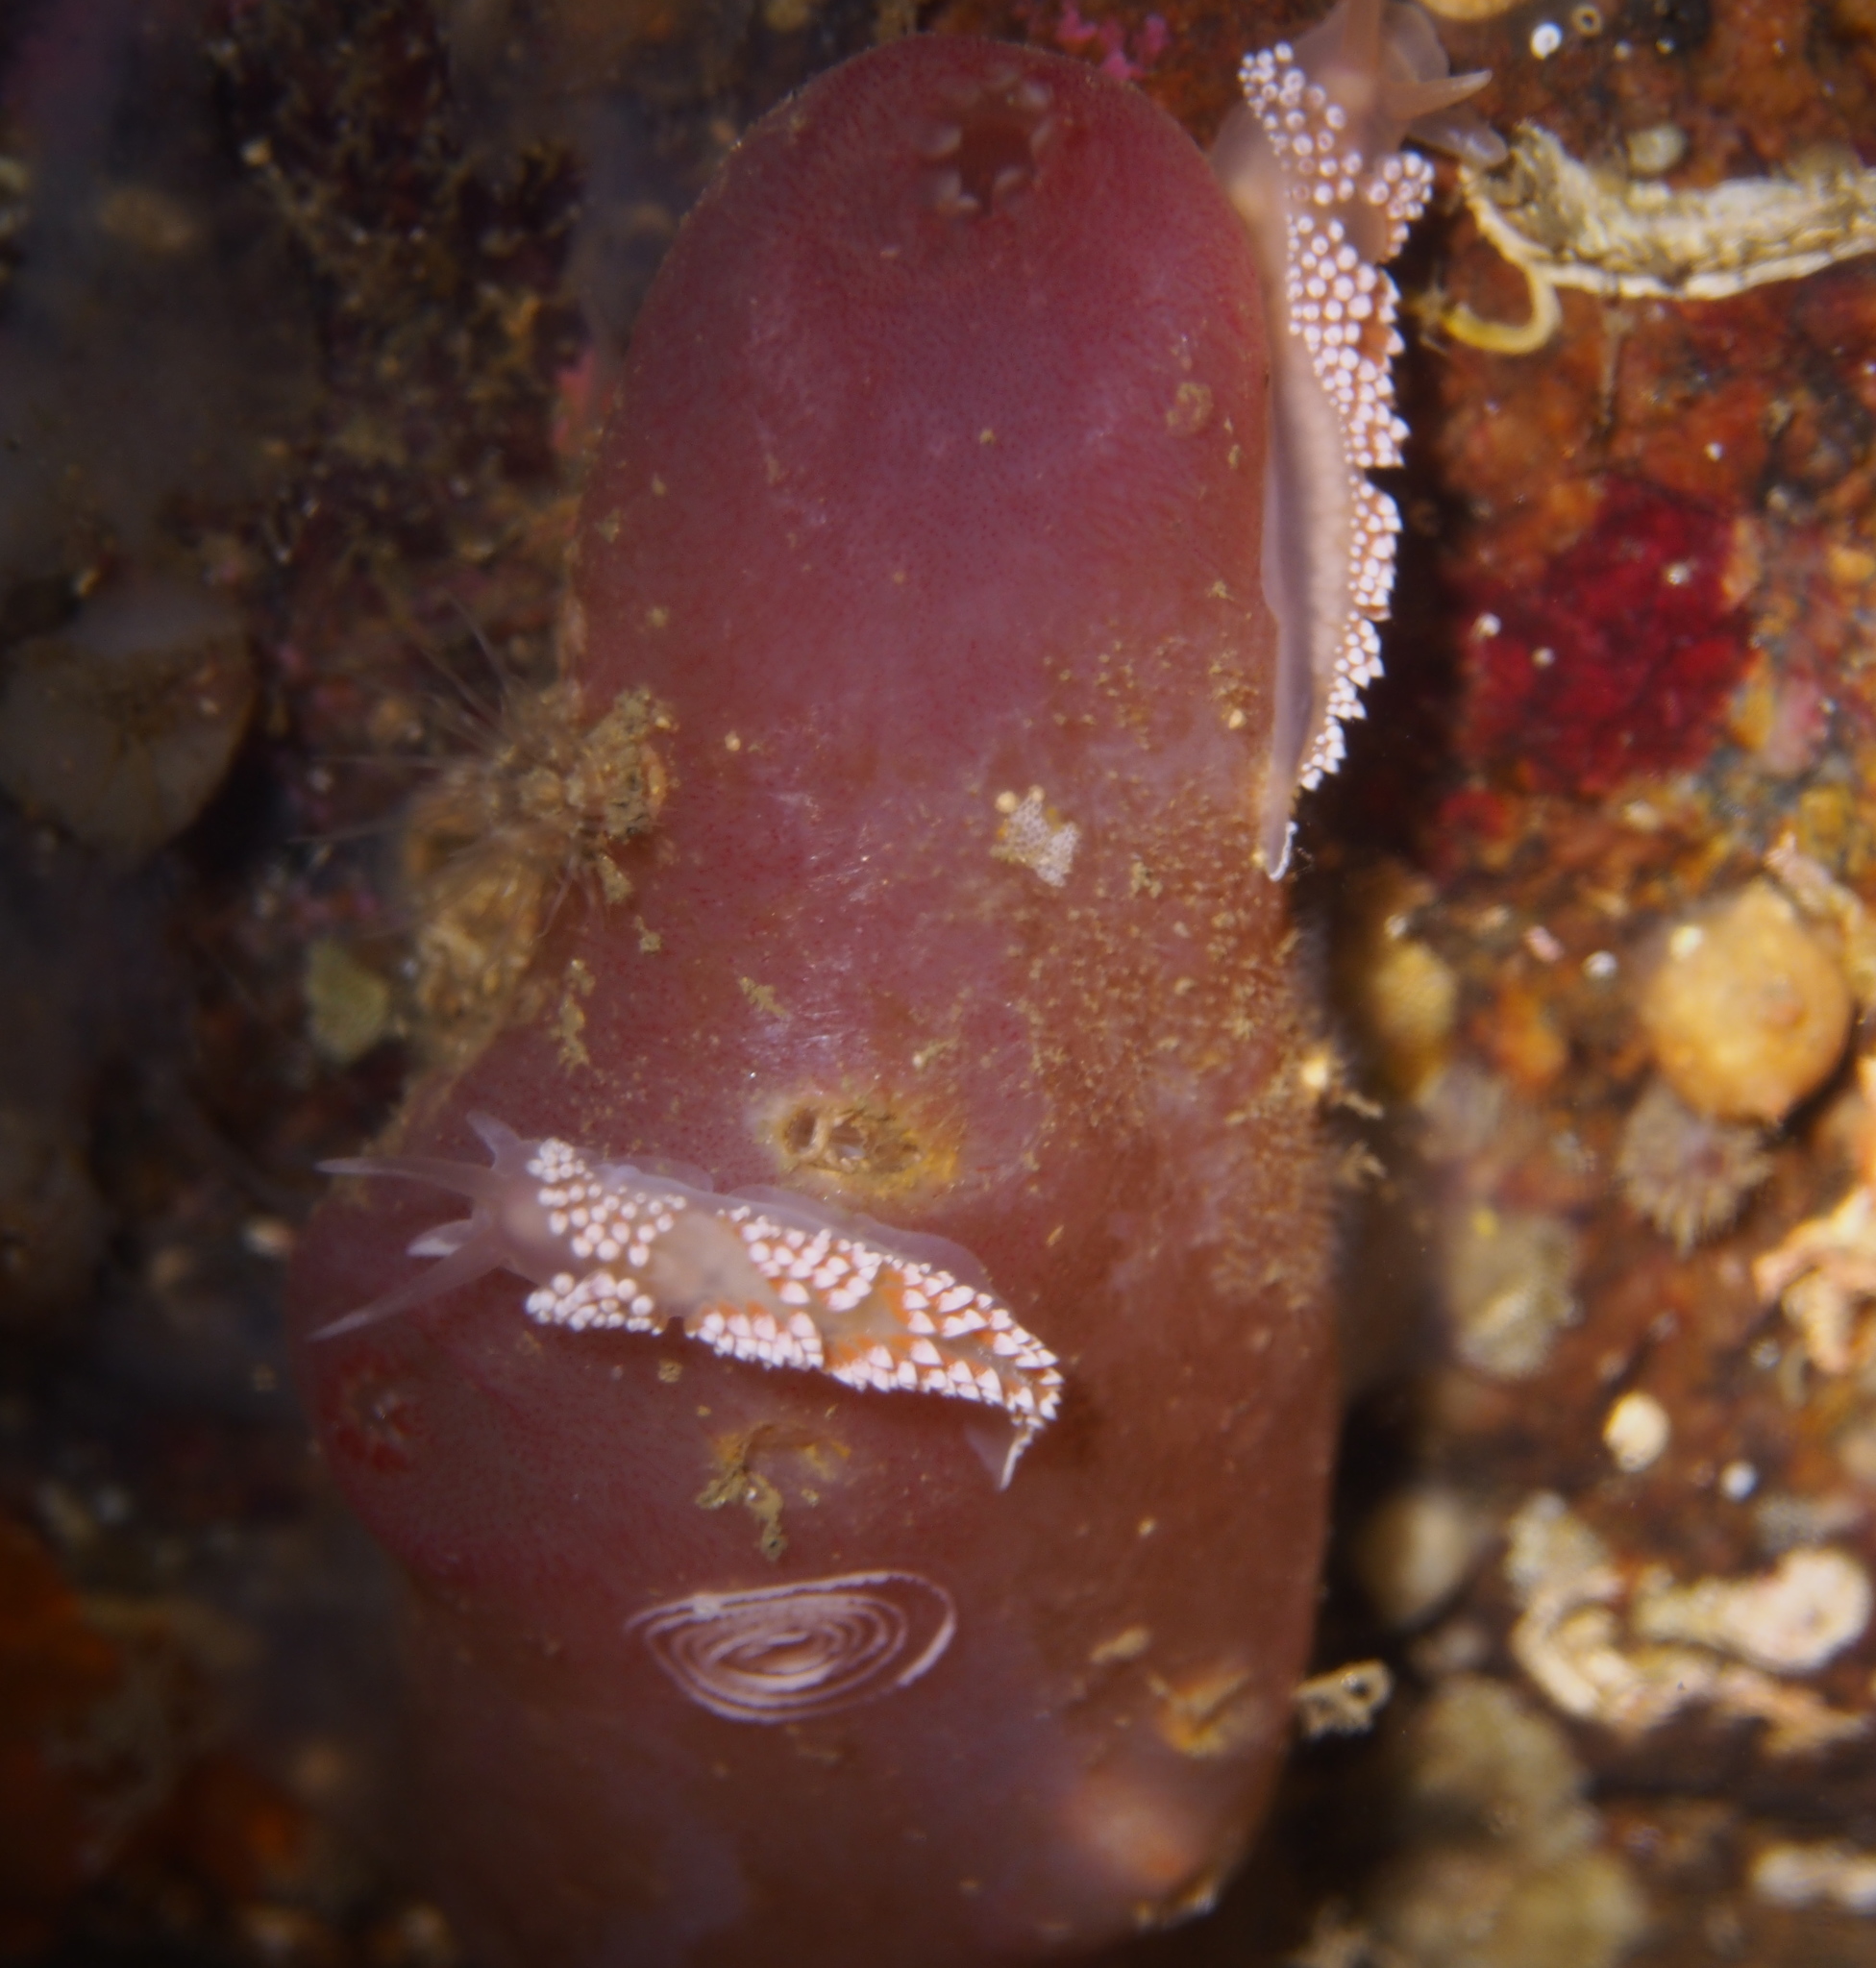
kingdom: Animalia
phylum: Mollusca
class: Gastropoda
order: Nudibranchia
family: Coryphellidae
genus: Coryphella
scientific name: Coryphella verrucosa
